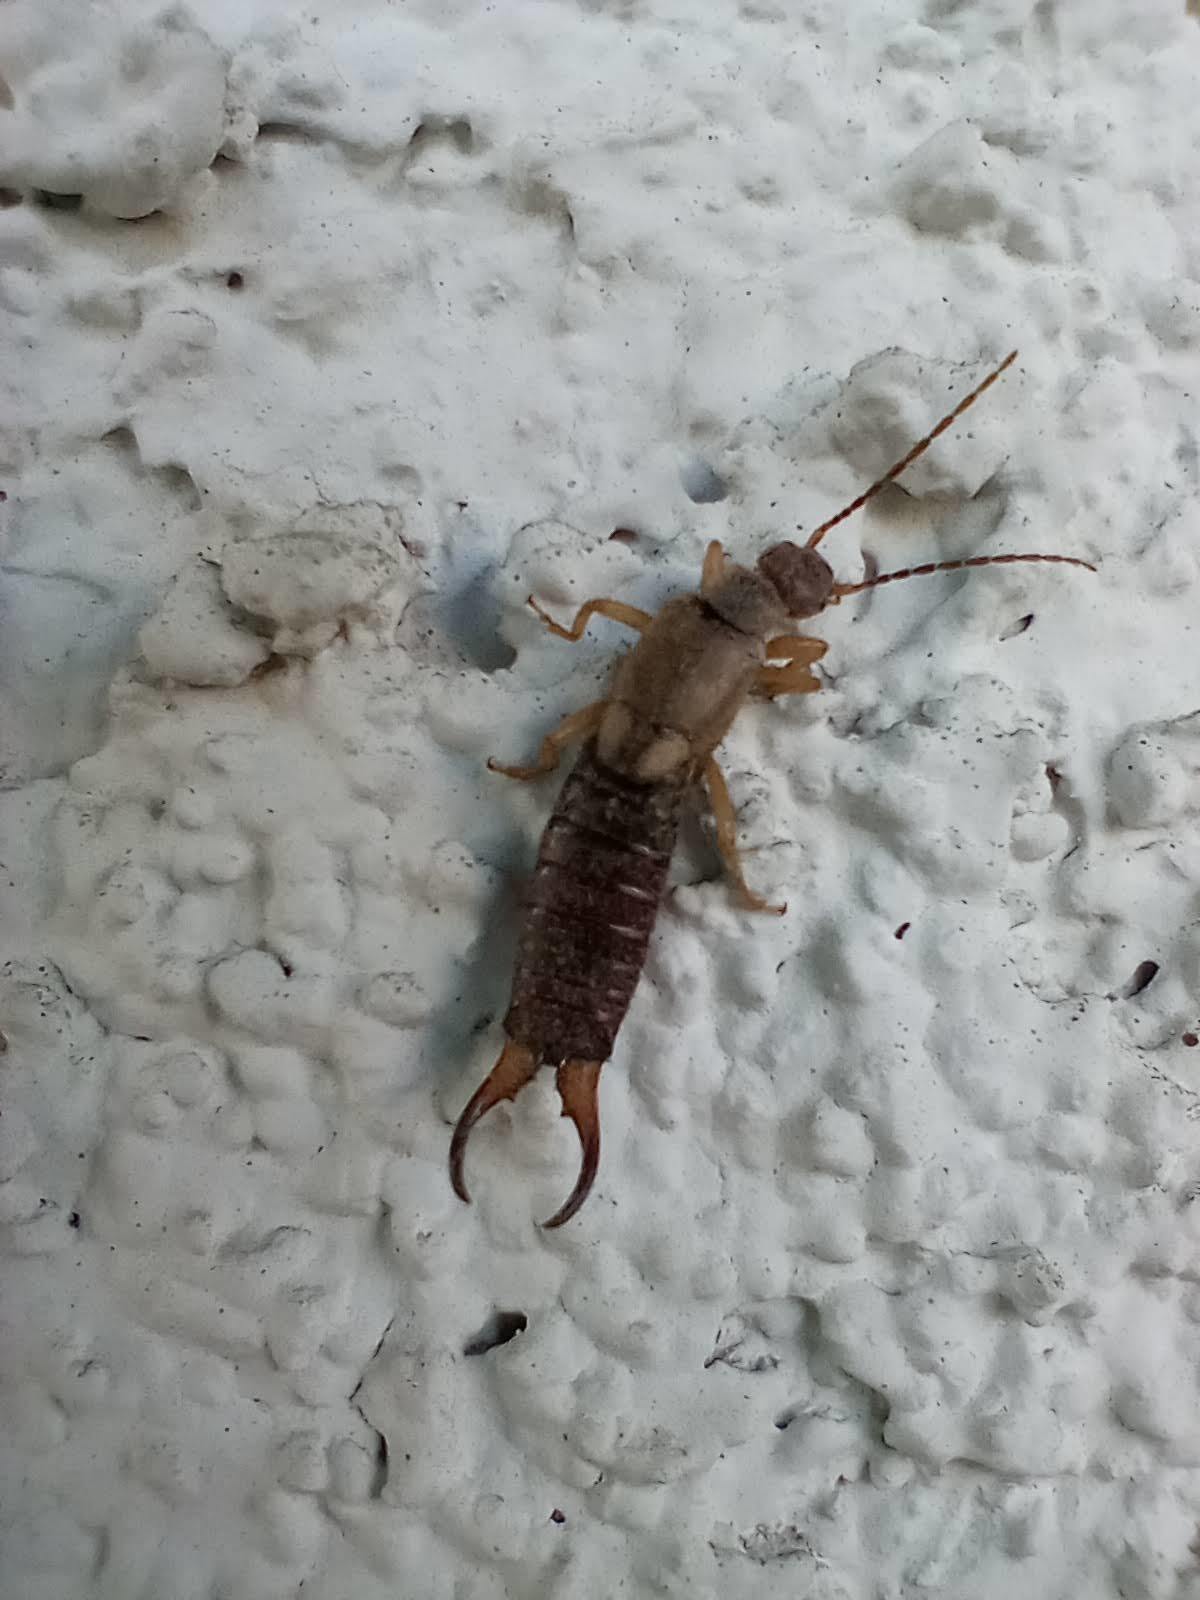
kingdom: Animalia
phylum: Arthropoda
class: Insecta
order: Dermaptera
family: Forficulidae
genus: Forficula
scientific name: Forficula
